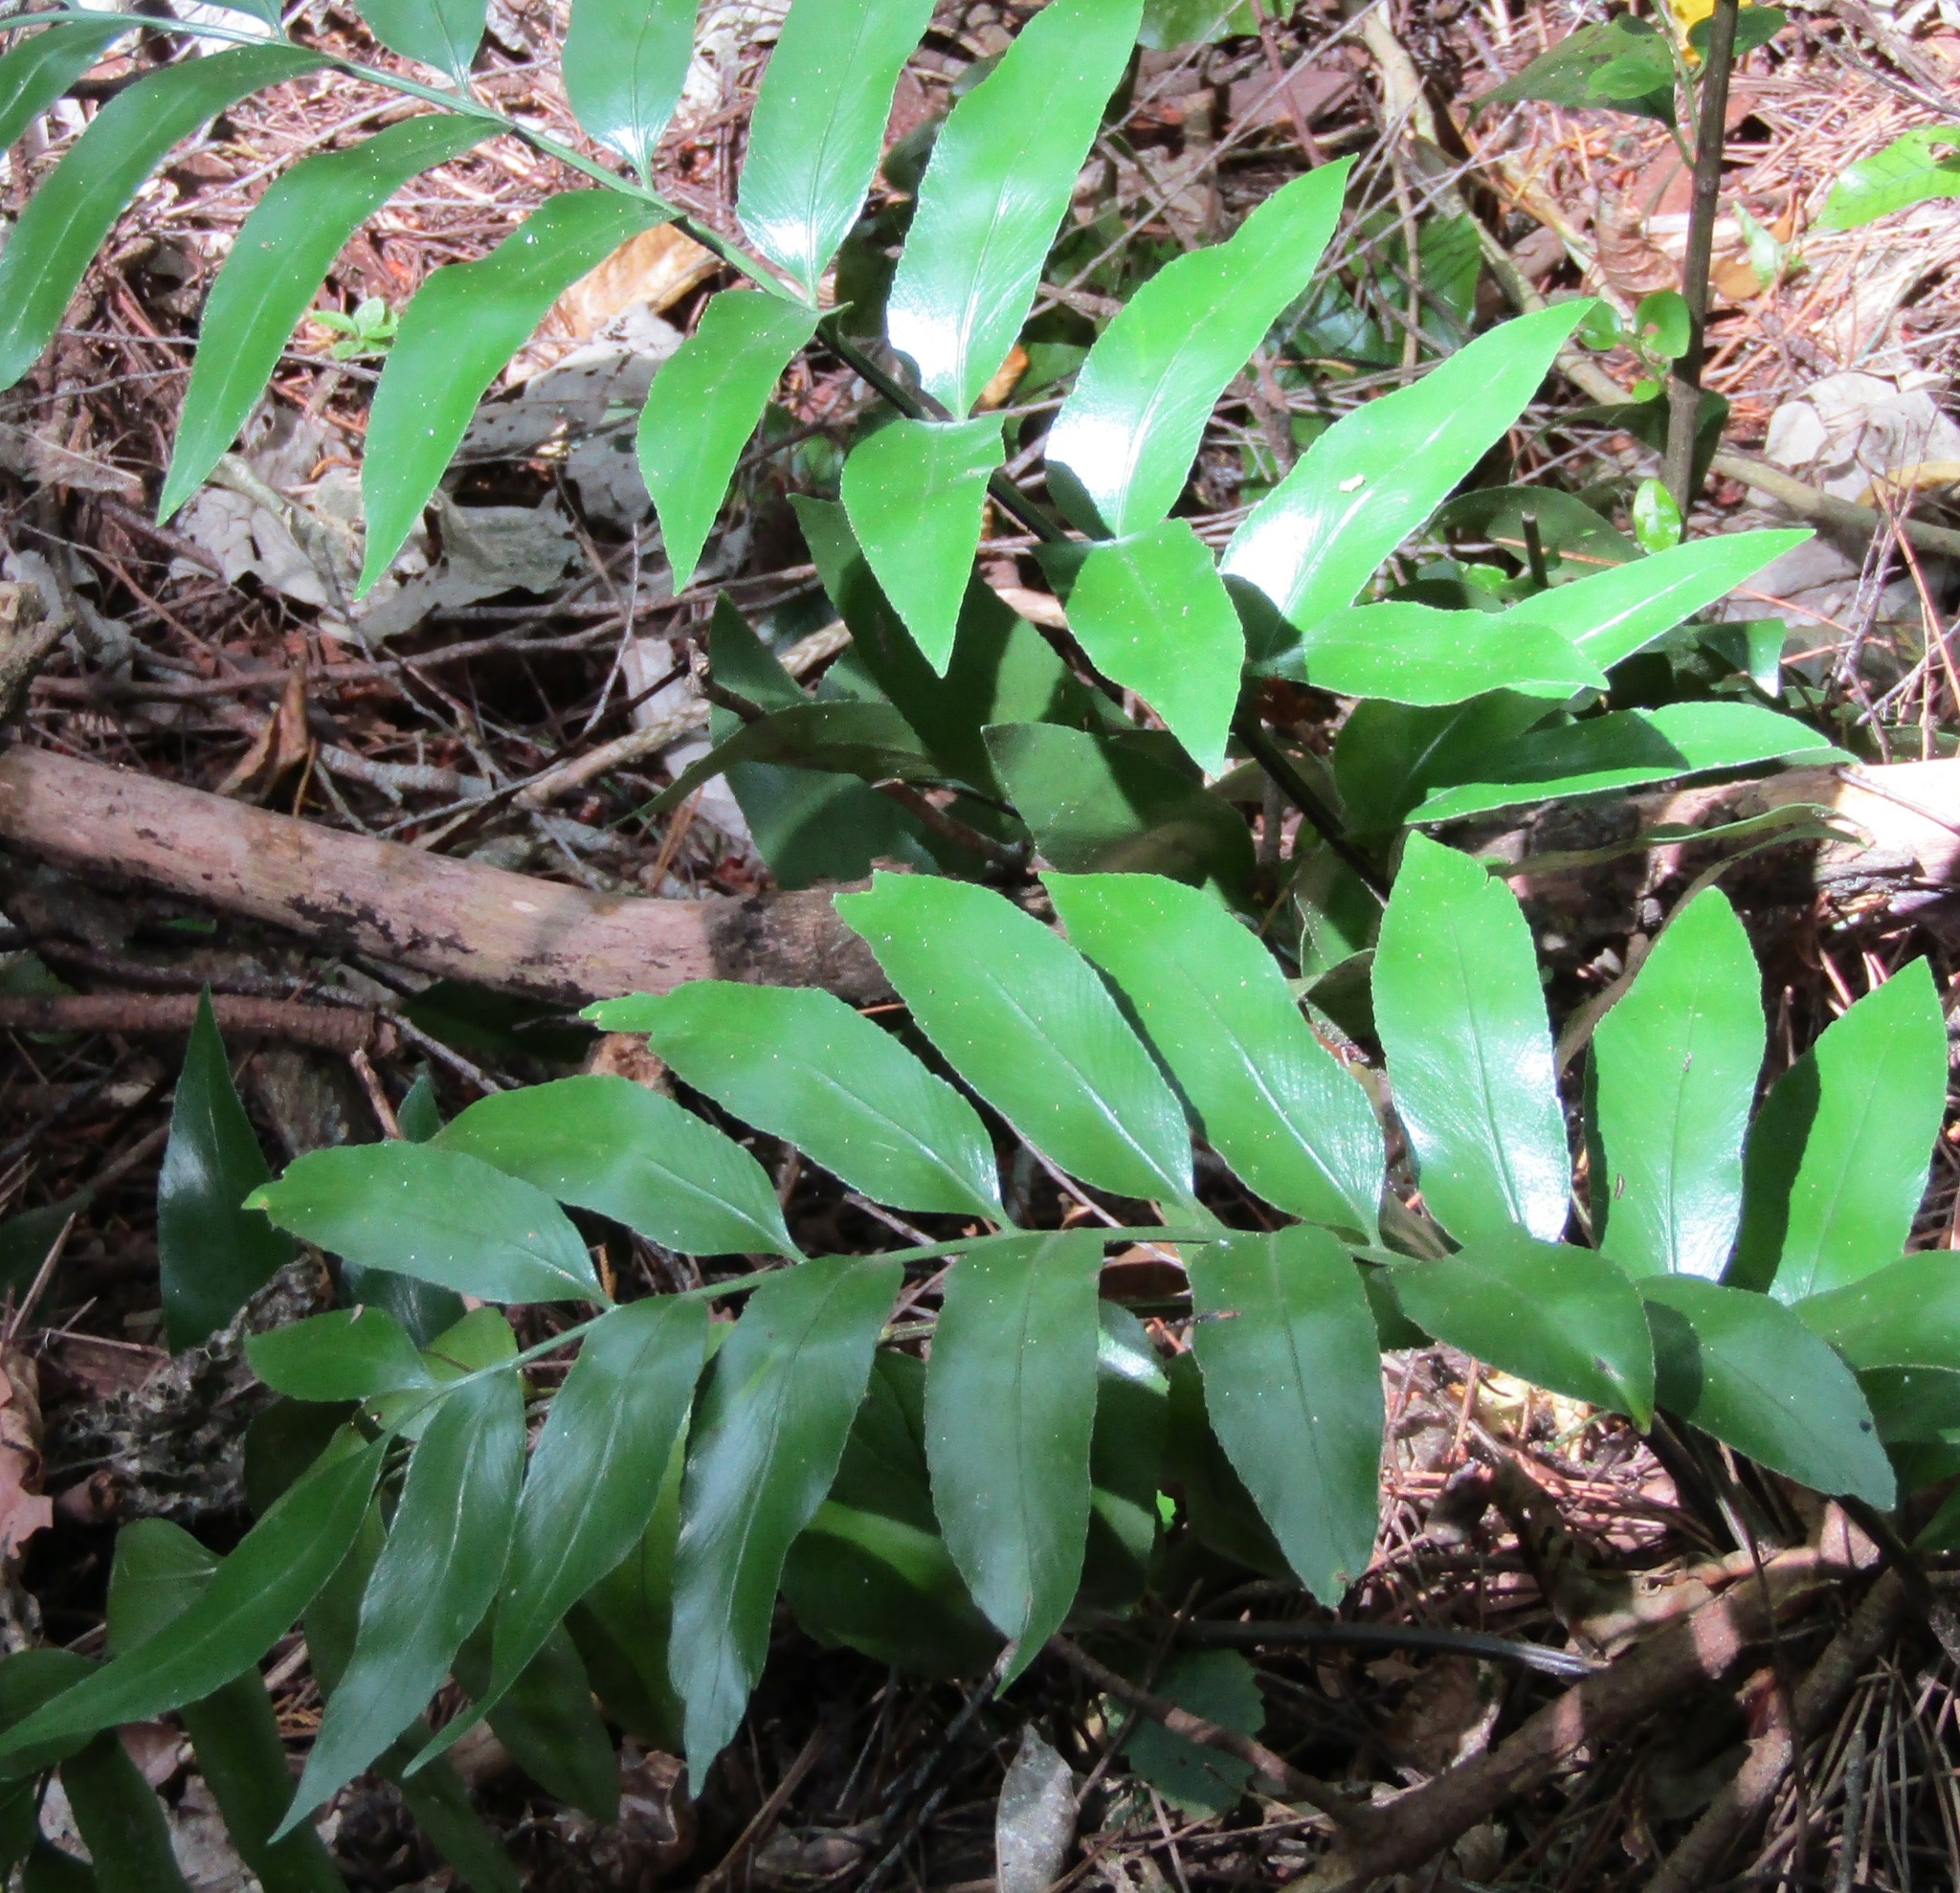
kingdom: Plantae
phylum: Tracheophyta
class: Polypodiopsida
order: Polypodiales
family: Aspleniaceae
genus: Asplenium
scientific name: Asplenium oblongifolium
